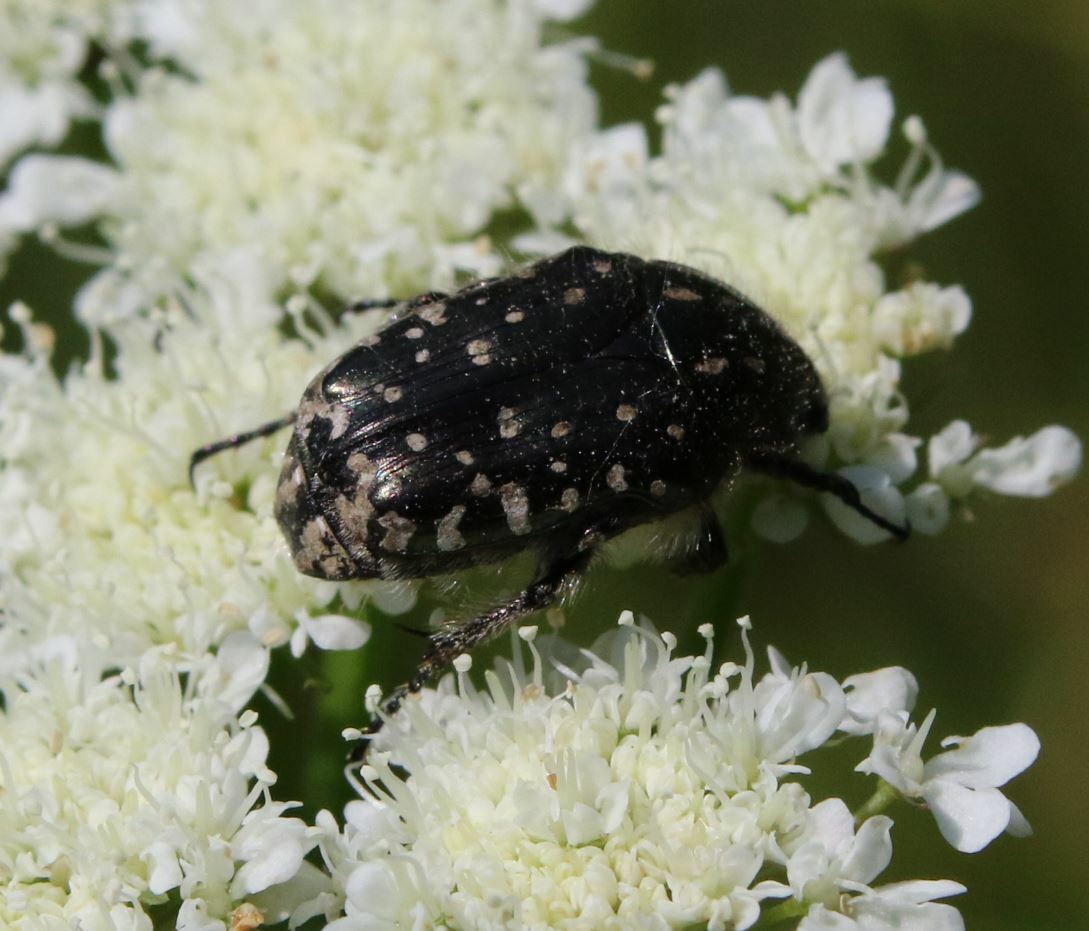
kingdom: Animalia
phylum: Arthropoda
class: Insecta
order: Coleoptera
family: Scarabaeidae
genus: Oxythyrea
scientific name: Oxythyrea funesta
